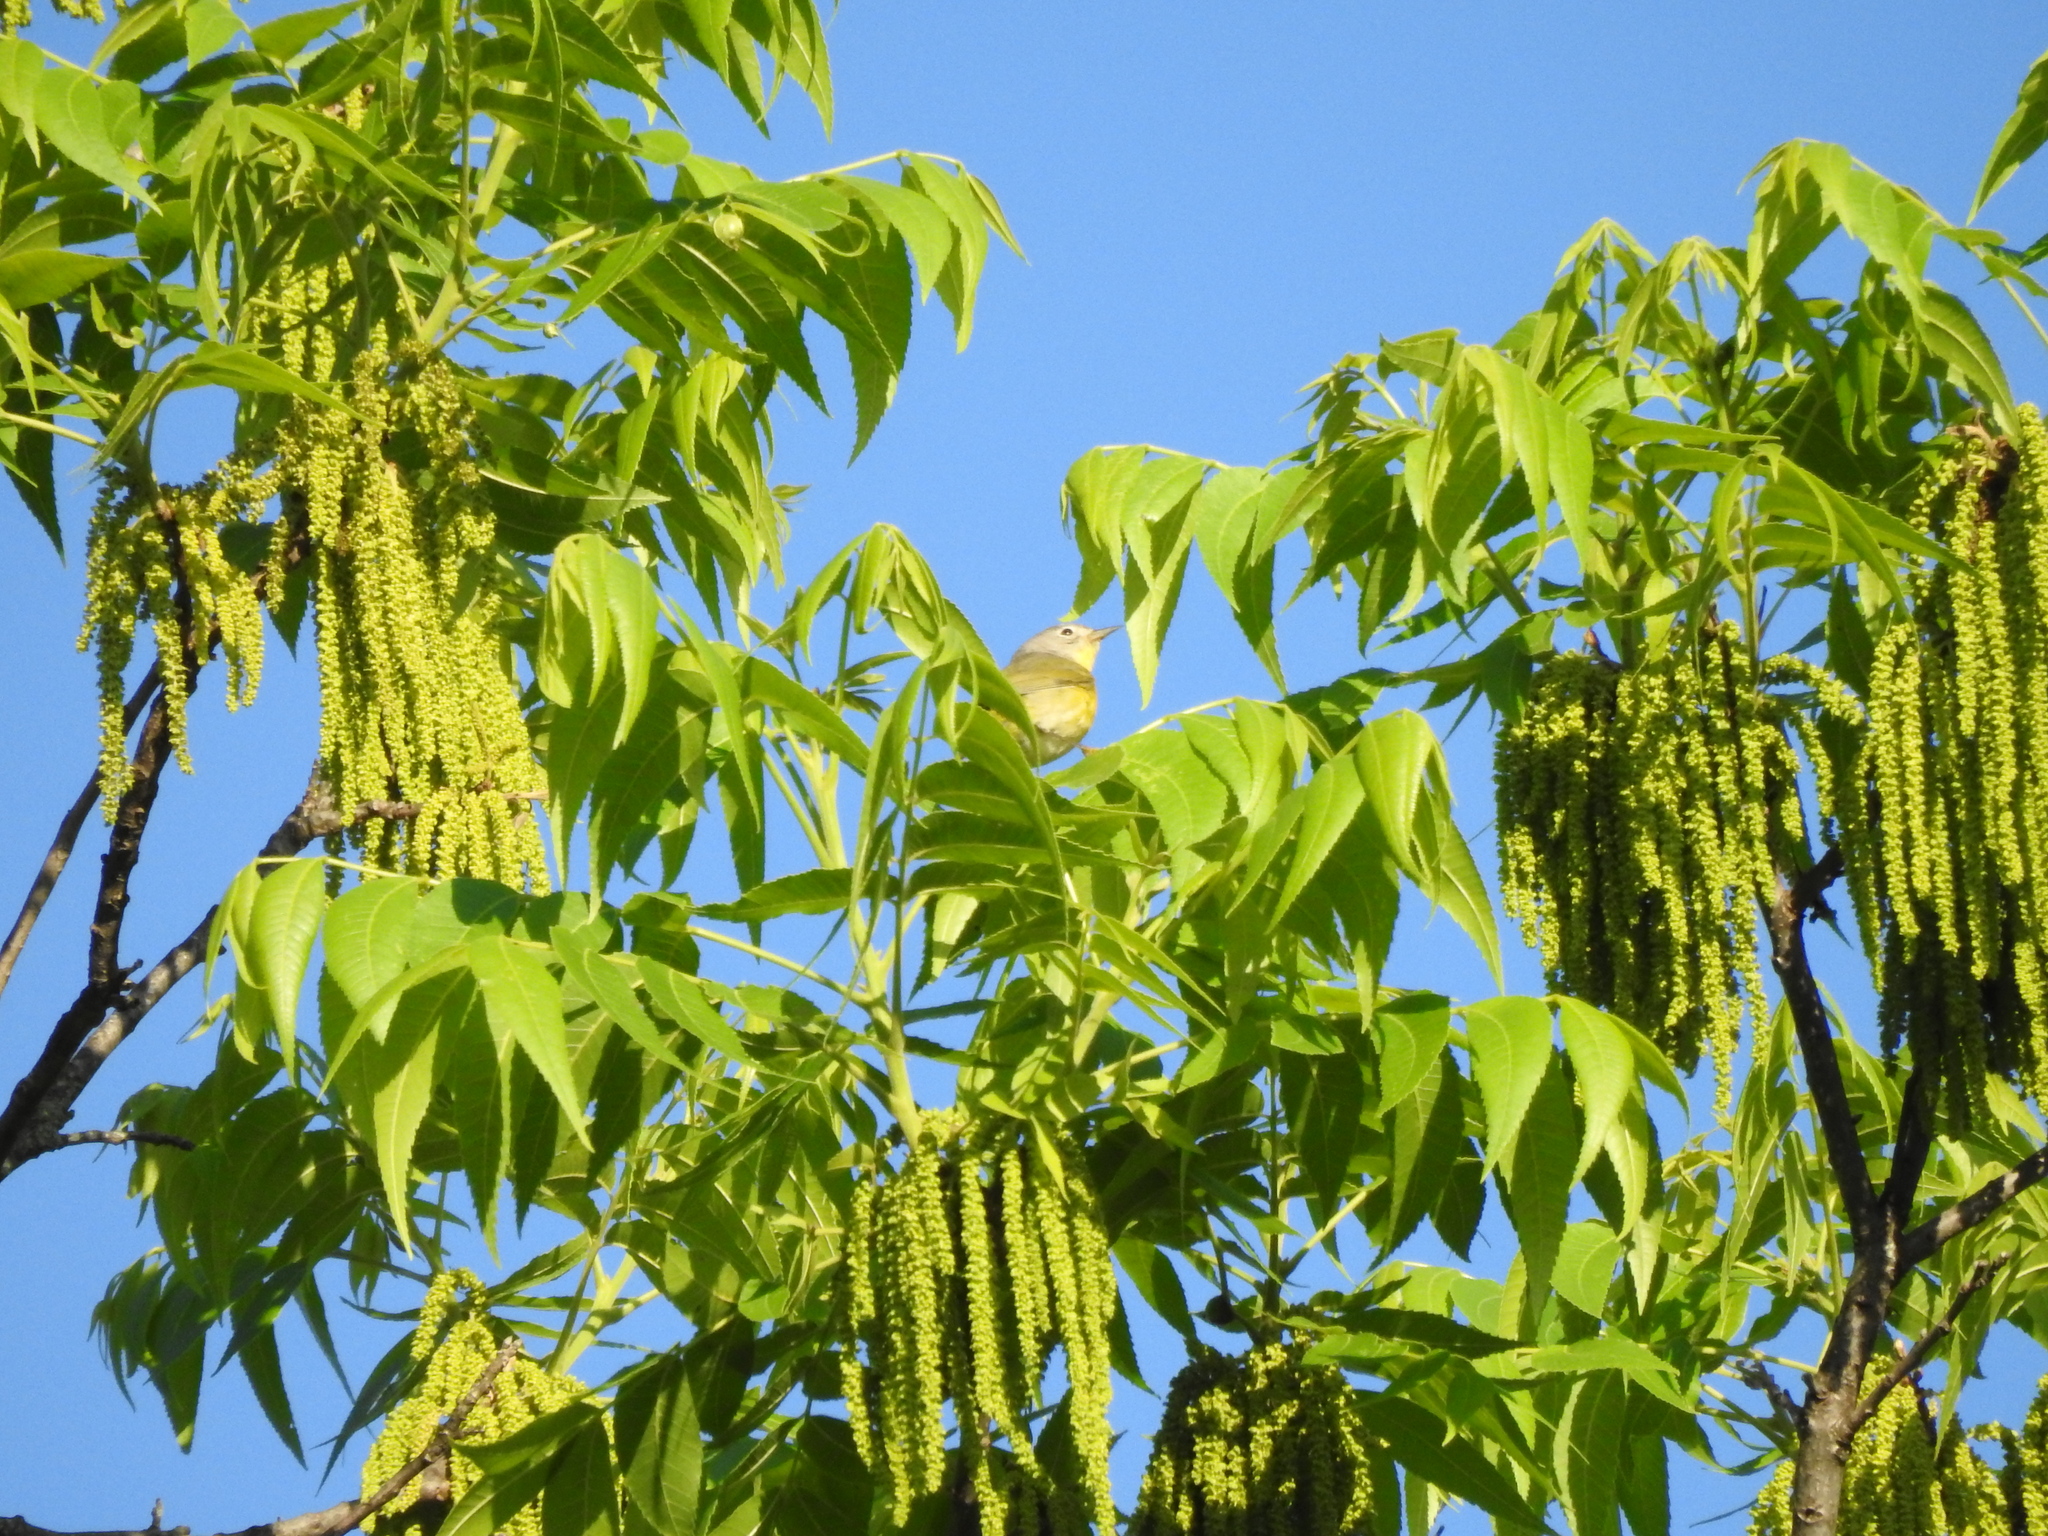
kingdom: Animalia
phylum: Chordata
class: Aves
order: Passeriformes
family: Parulidae
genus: Leiothlypis
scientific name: Leiothlypis ruficapilla
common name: Nashville warbler
